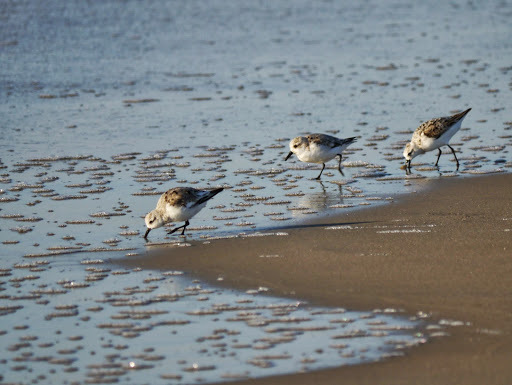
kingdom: Animalia
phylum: Chordata
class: Aves
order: Charadriiformes
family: Scolopacidae
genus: Calidris
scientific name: Calidris alba
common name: Sanderling
